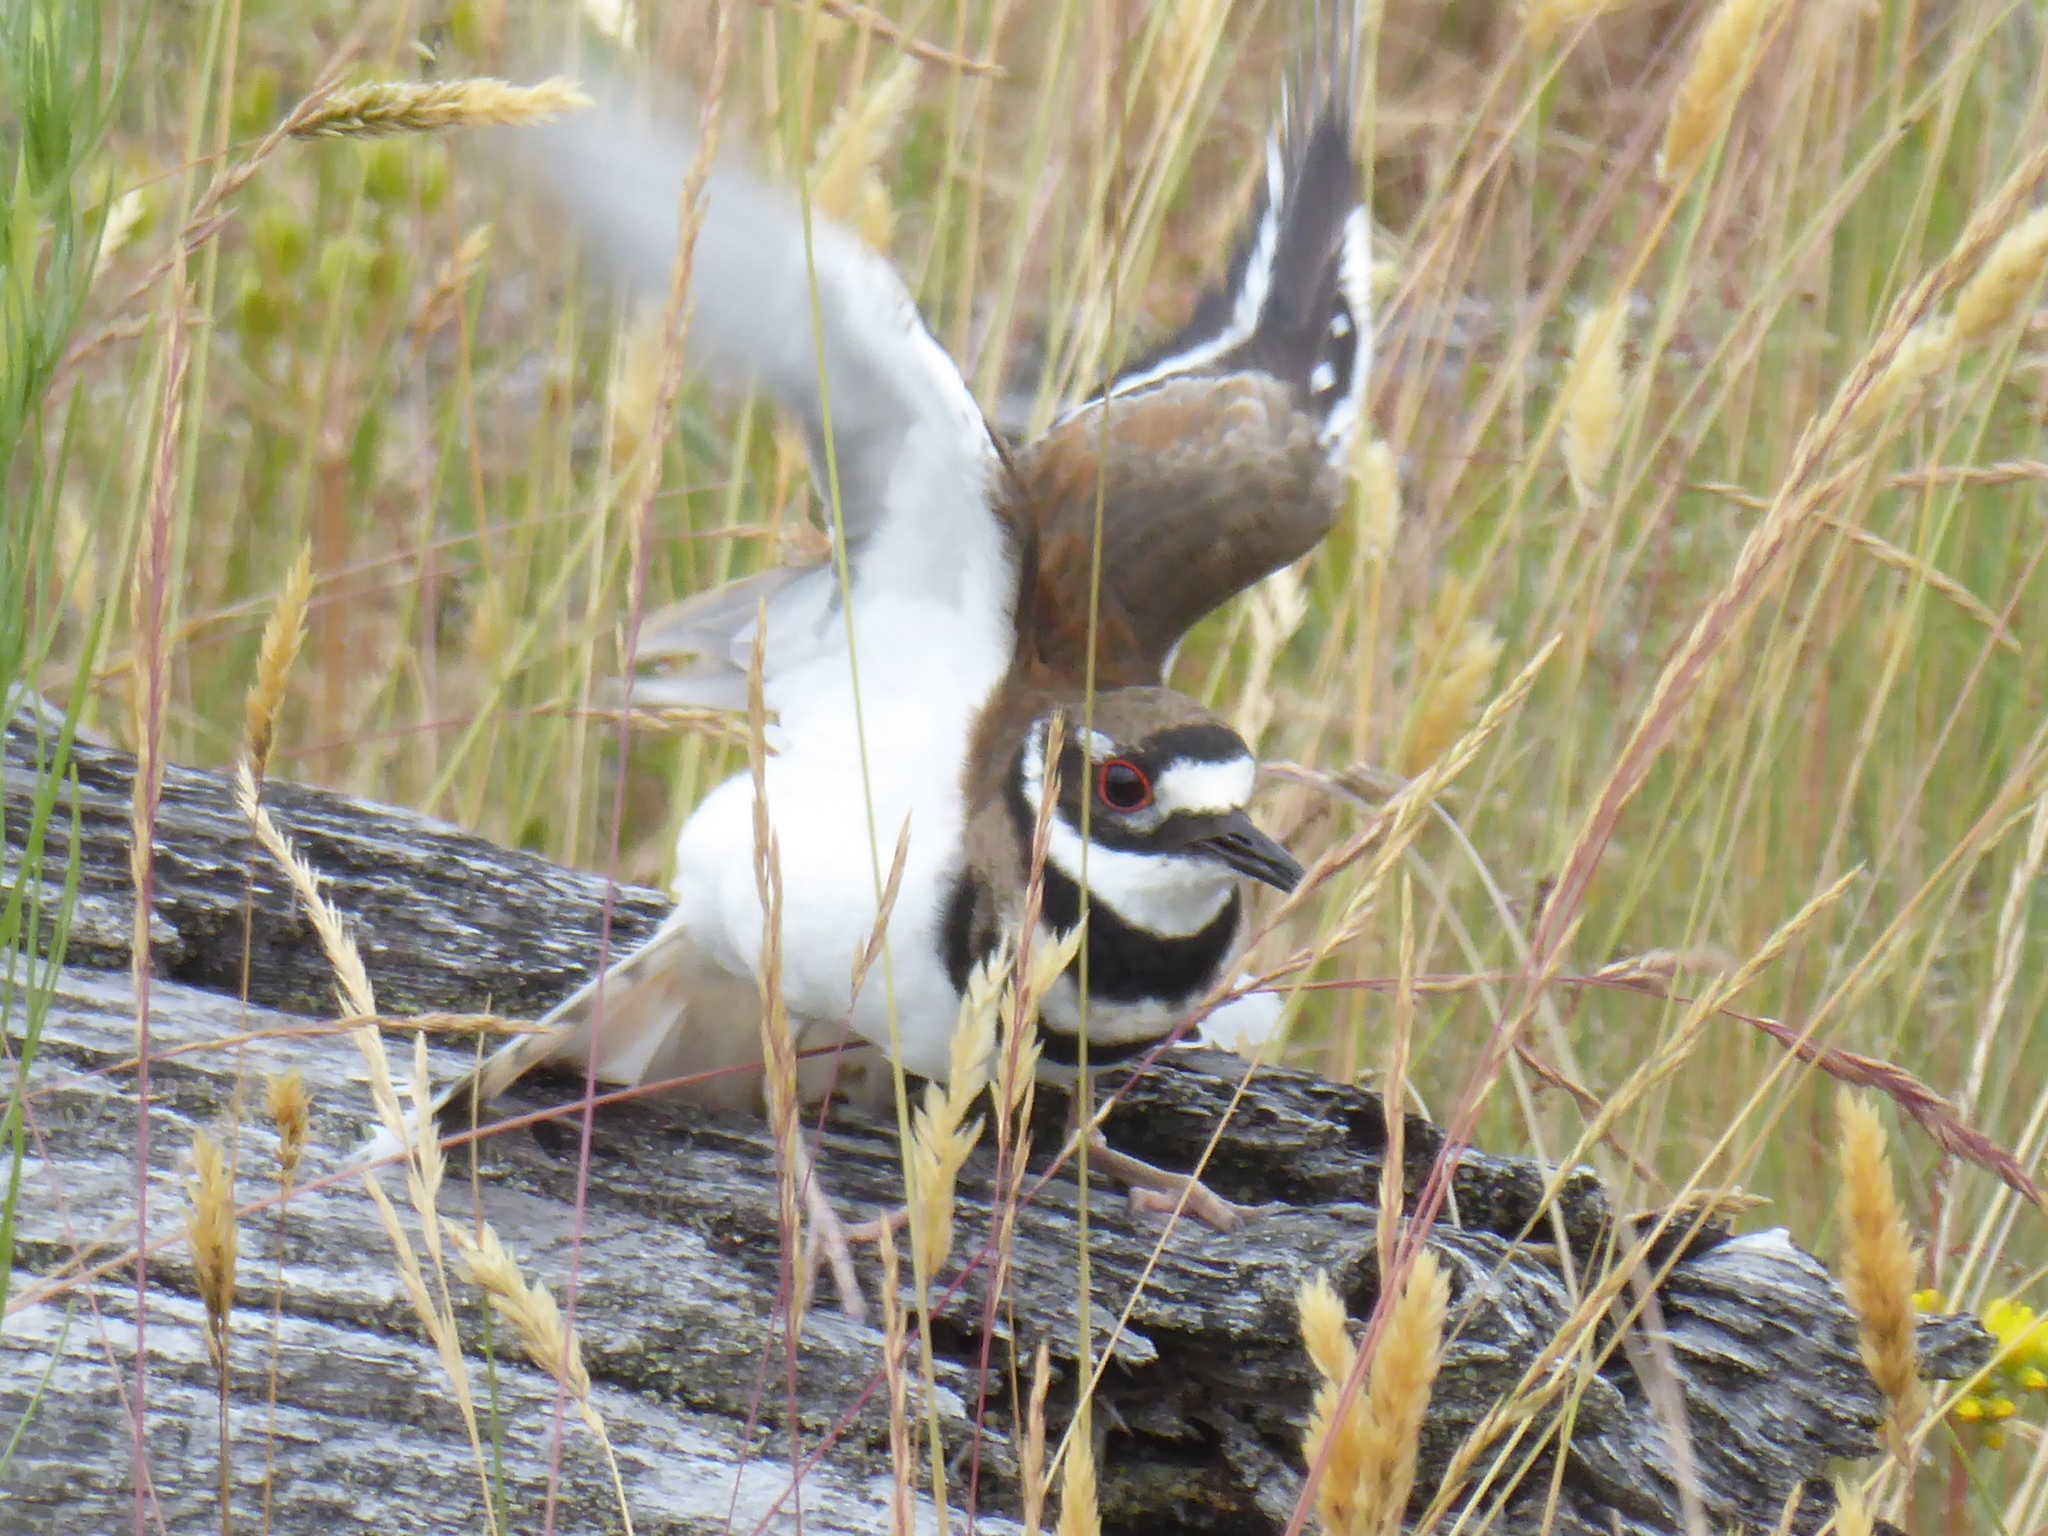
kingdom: Animalia
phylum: Chordata
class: Aves
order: Charadriiformes
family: Charadriidae
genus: Charadrius
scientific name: Charadrius vociferus
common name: Killdeer
